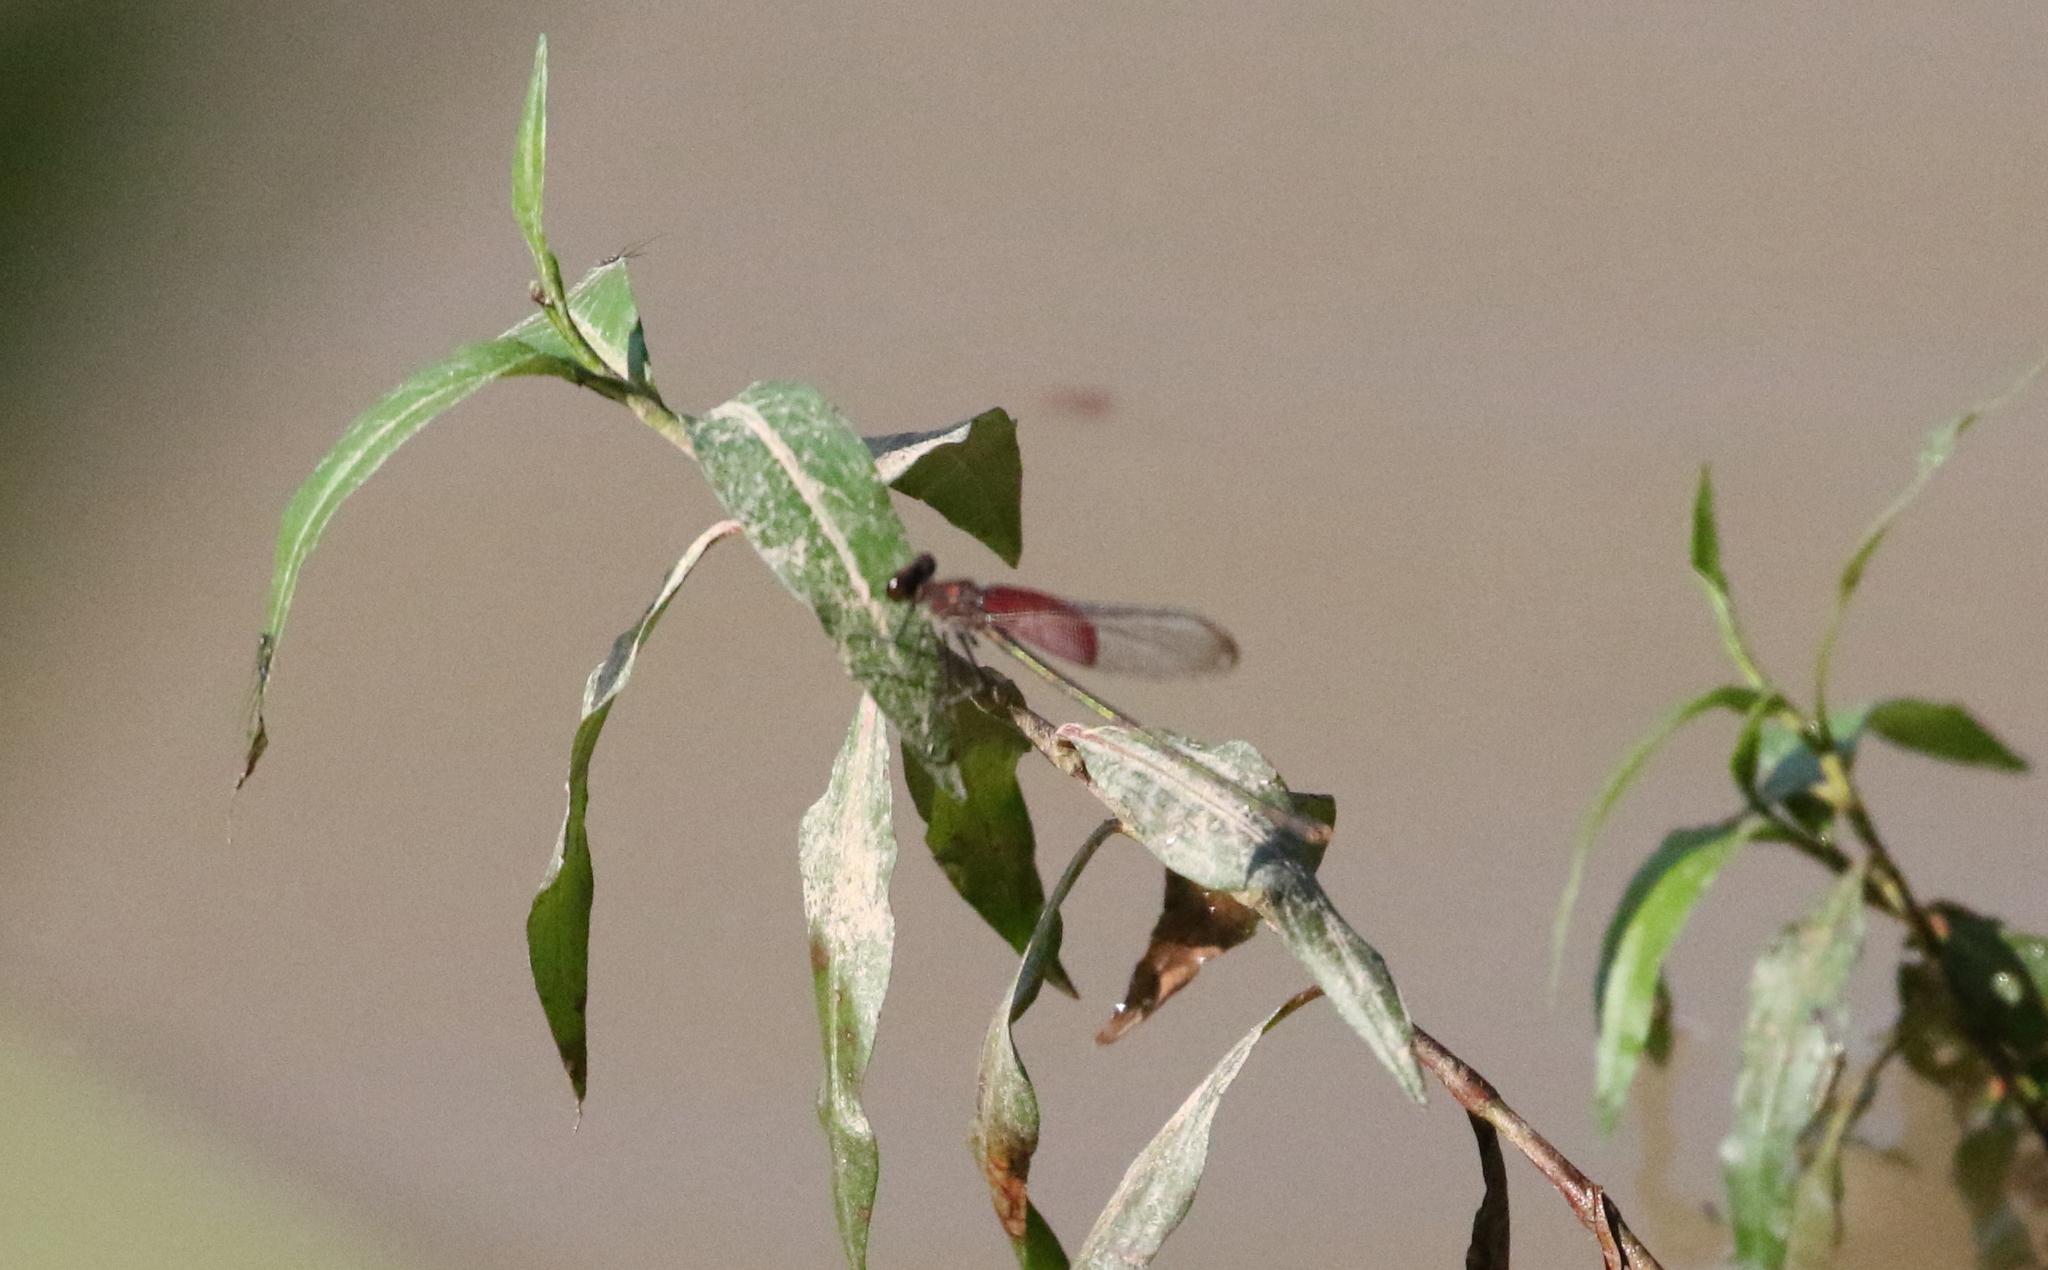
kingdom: Animalia
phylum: Arthropoda
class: Insecta
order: Odonata
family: Calopterygidae
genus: Hetaerina
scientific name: Hetaerina americana
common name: American rubyspot
